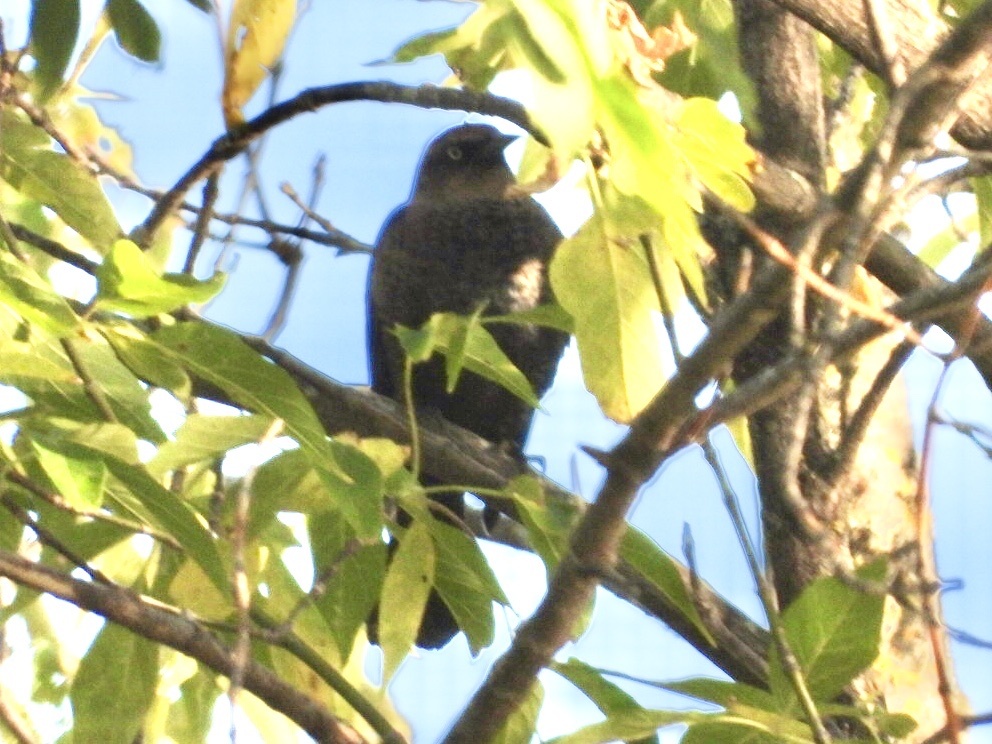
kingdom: Animalia
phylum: Chordata
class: Aves
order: Passeriformes
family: Icteridae
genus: Euphagus
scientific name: Euphagus carolinus
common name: Rusty blackbird
